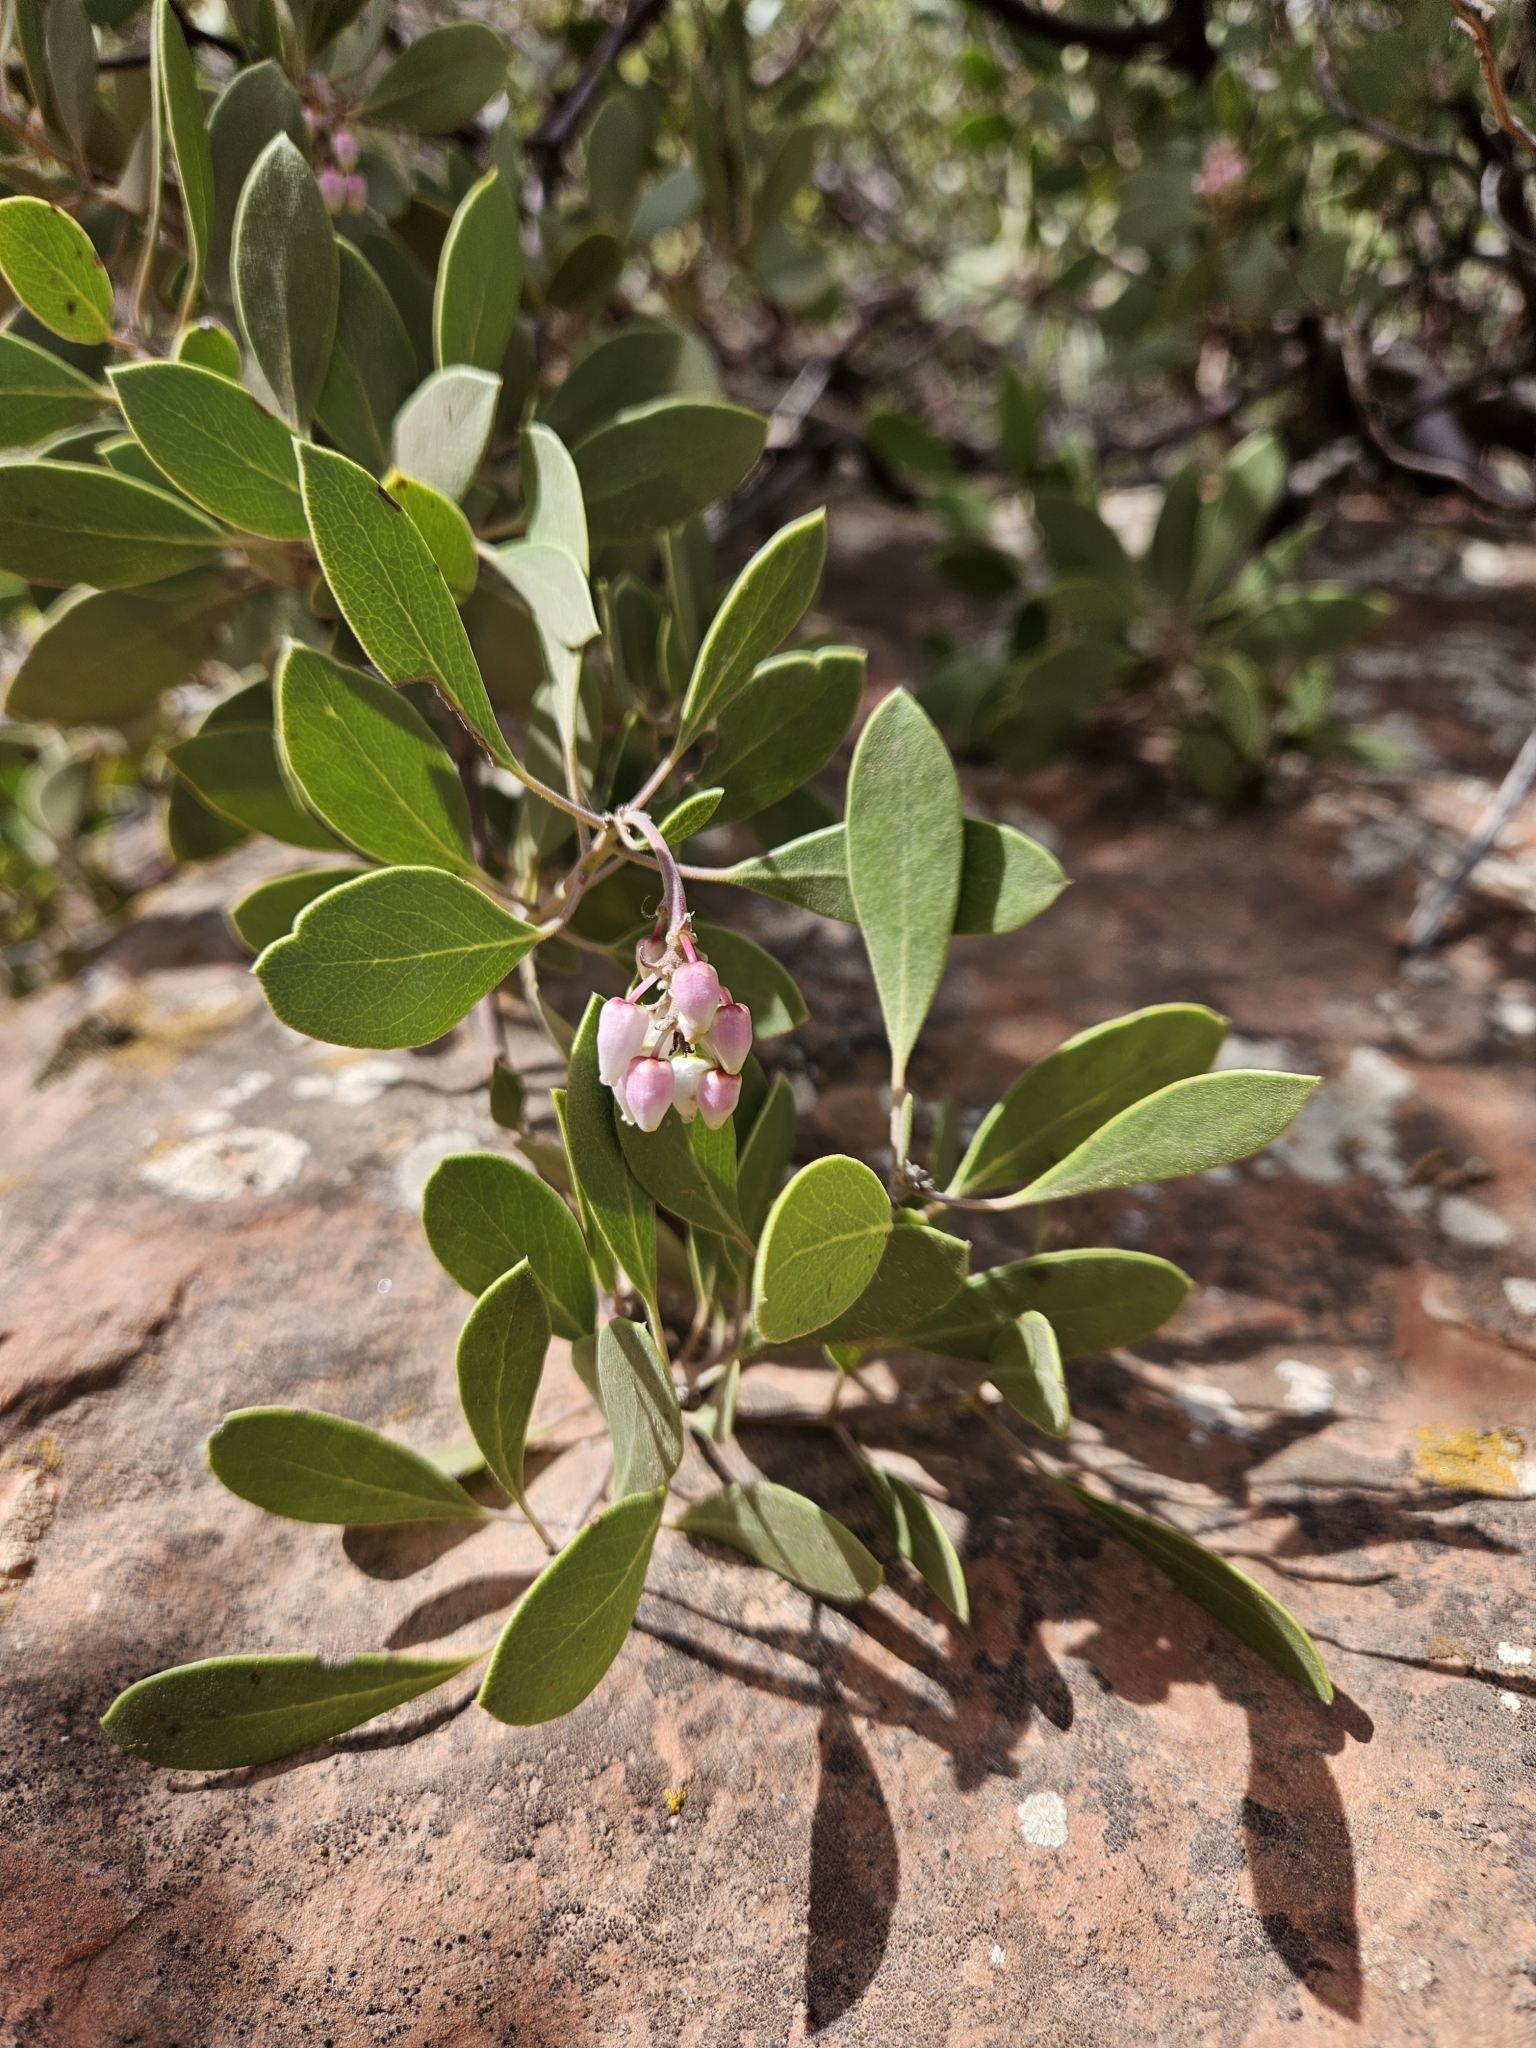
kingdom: Plantae
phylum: Tracheophyta
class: Magnoliopsida
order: Ericales
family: Ericaceae
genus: Arctostaphylos
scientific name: Arctostaphylos pungens
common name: Mexican manzanita
